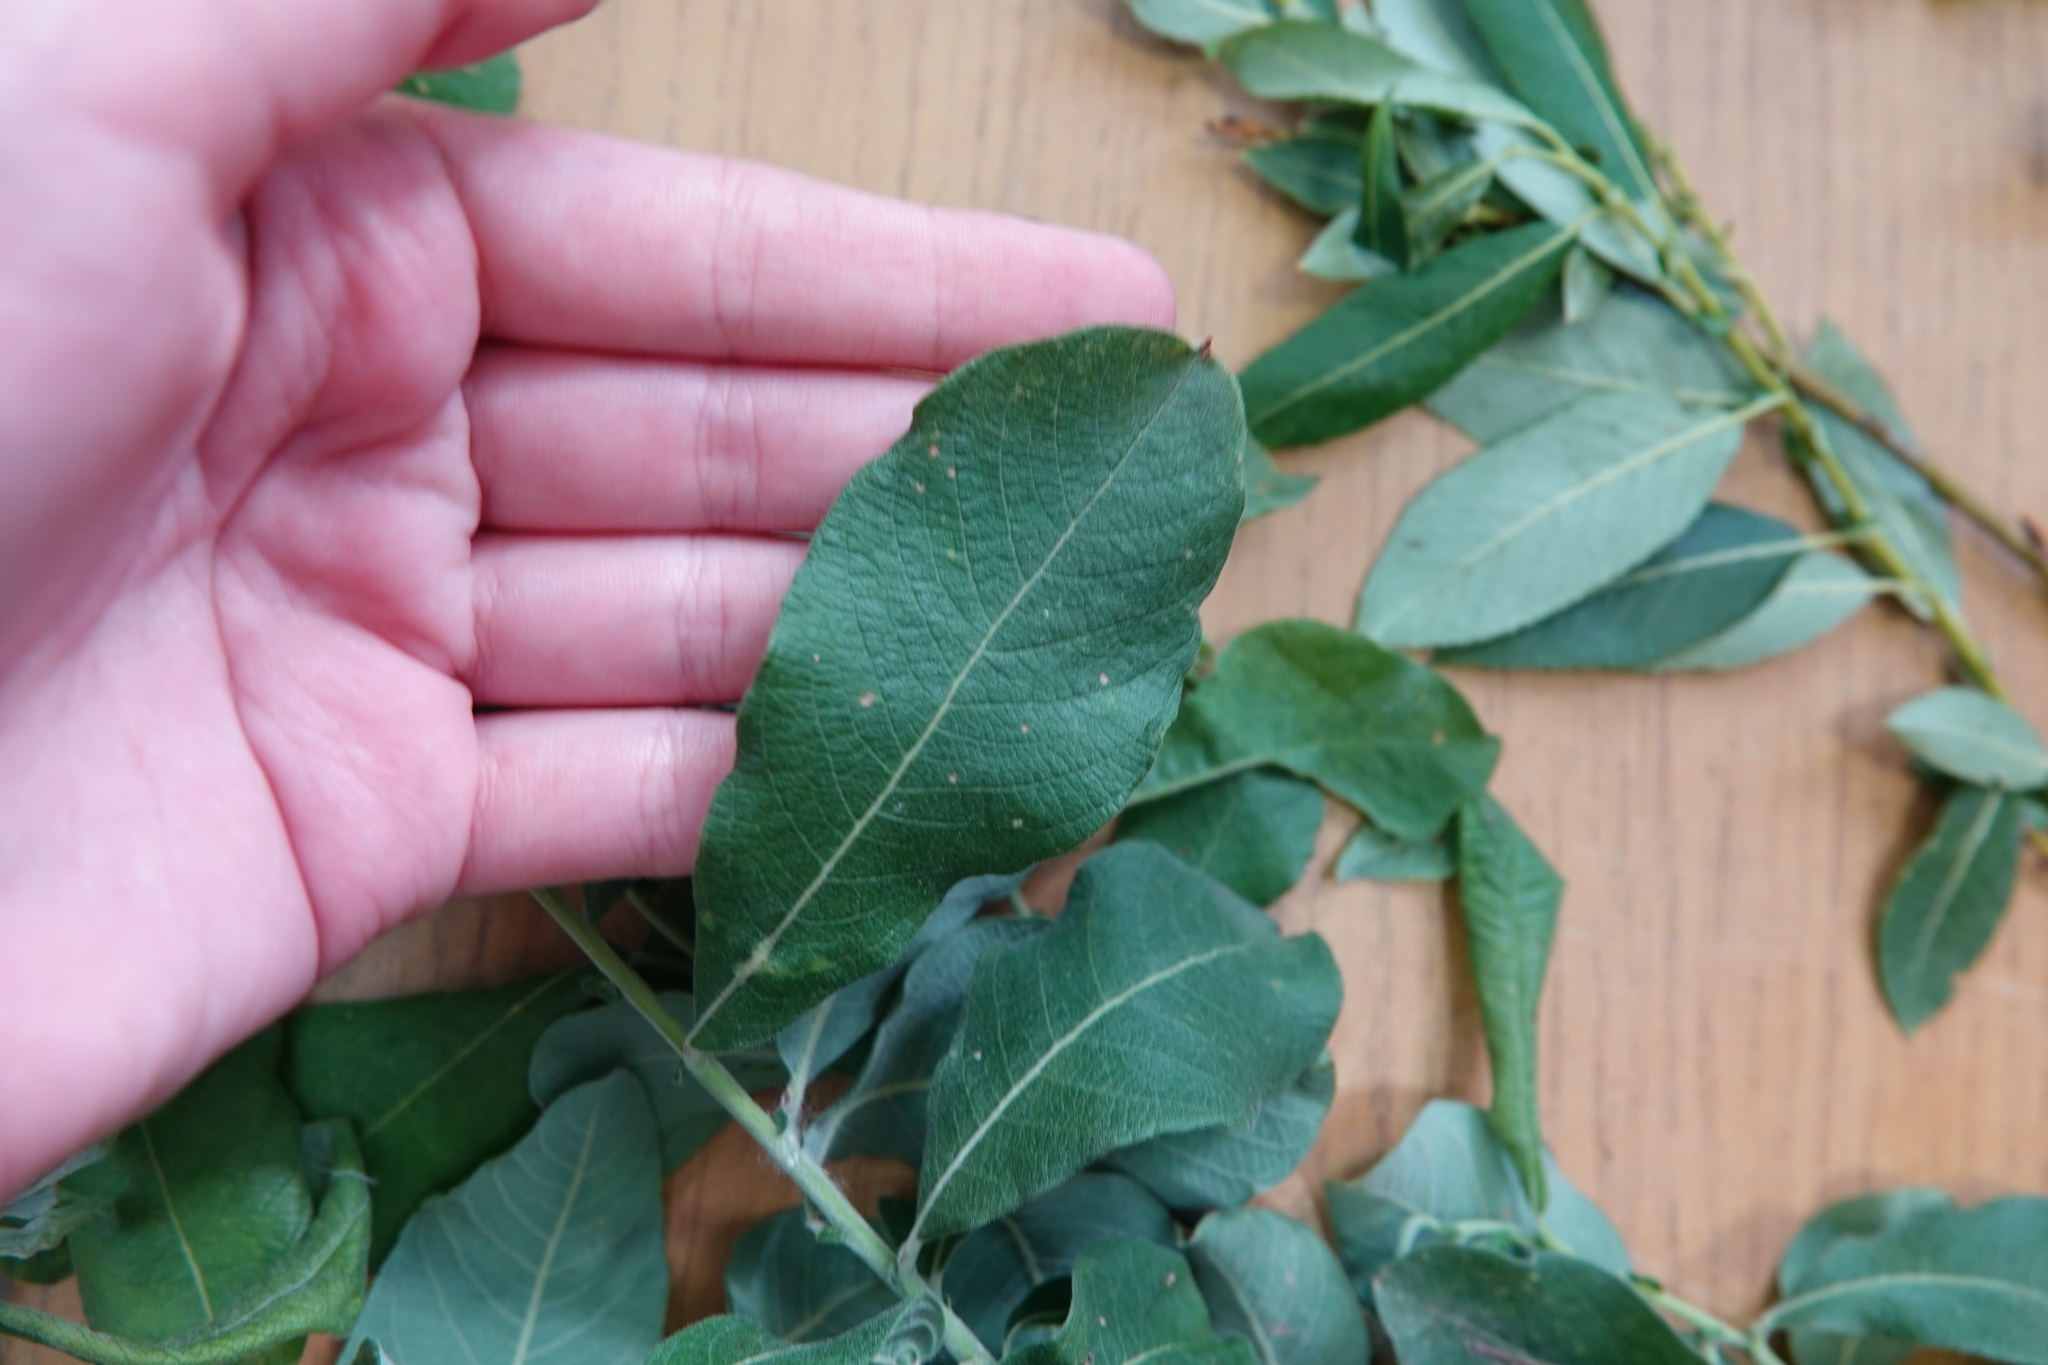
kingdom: Plantae
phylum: Tracheophyta
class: Magnoliopsida
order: Malpighiales
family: Salicaceae
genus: Salix
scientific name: Salix cinerea
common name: Common sallow
